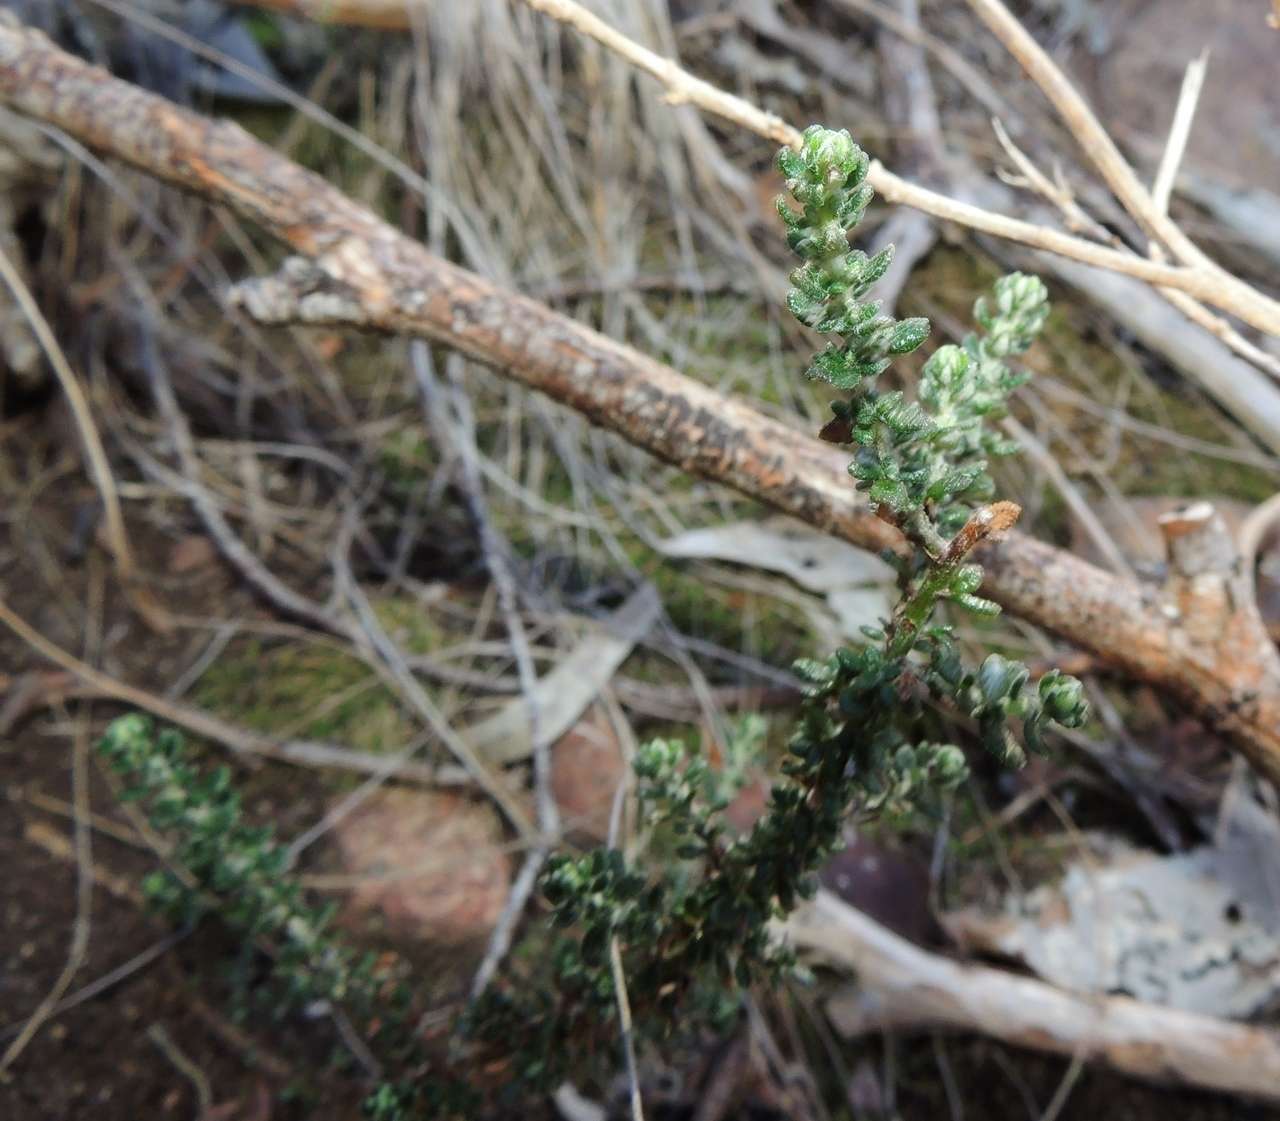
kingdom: Plantae
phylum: Tracheophyta
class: Magnoliopsida
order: Asterales
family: Asteraceae
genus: Olearia
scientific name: Olearia minor
